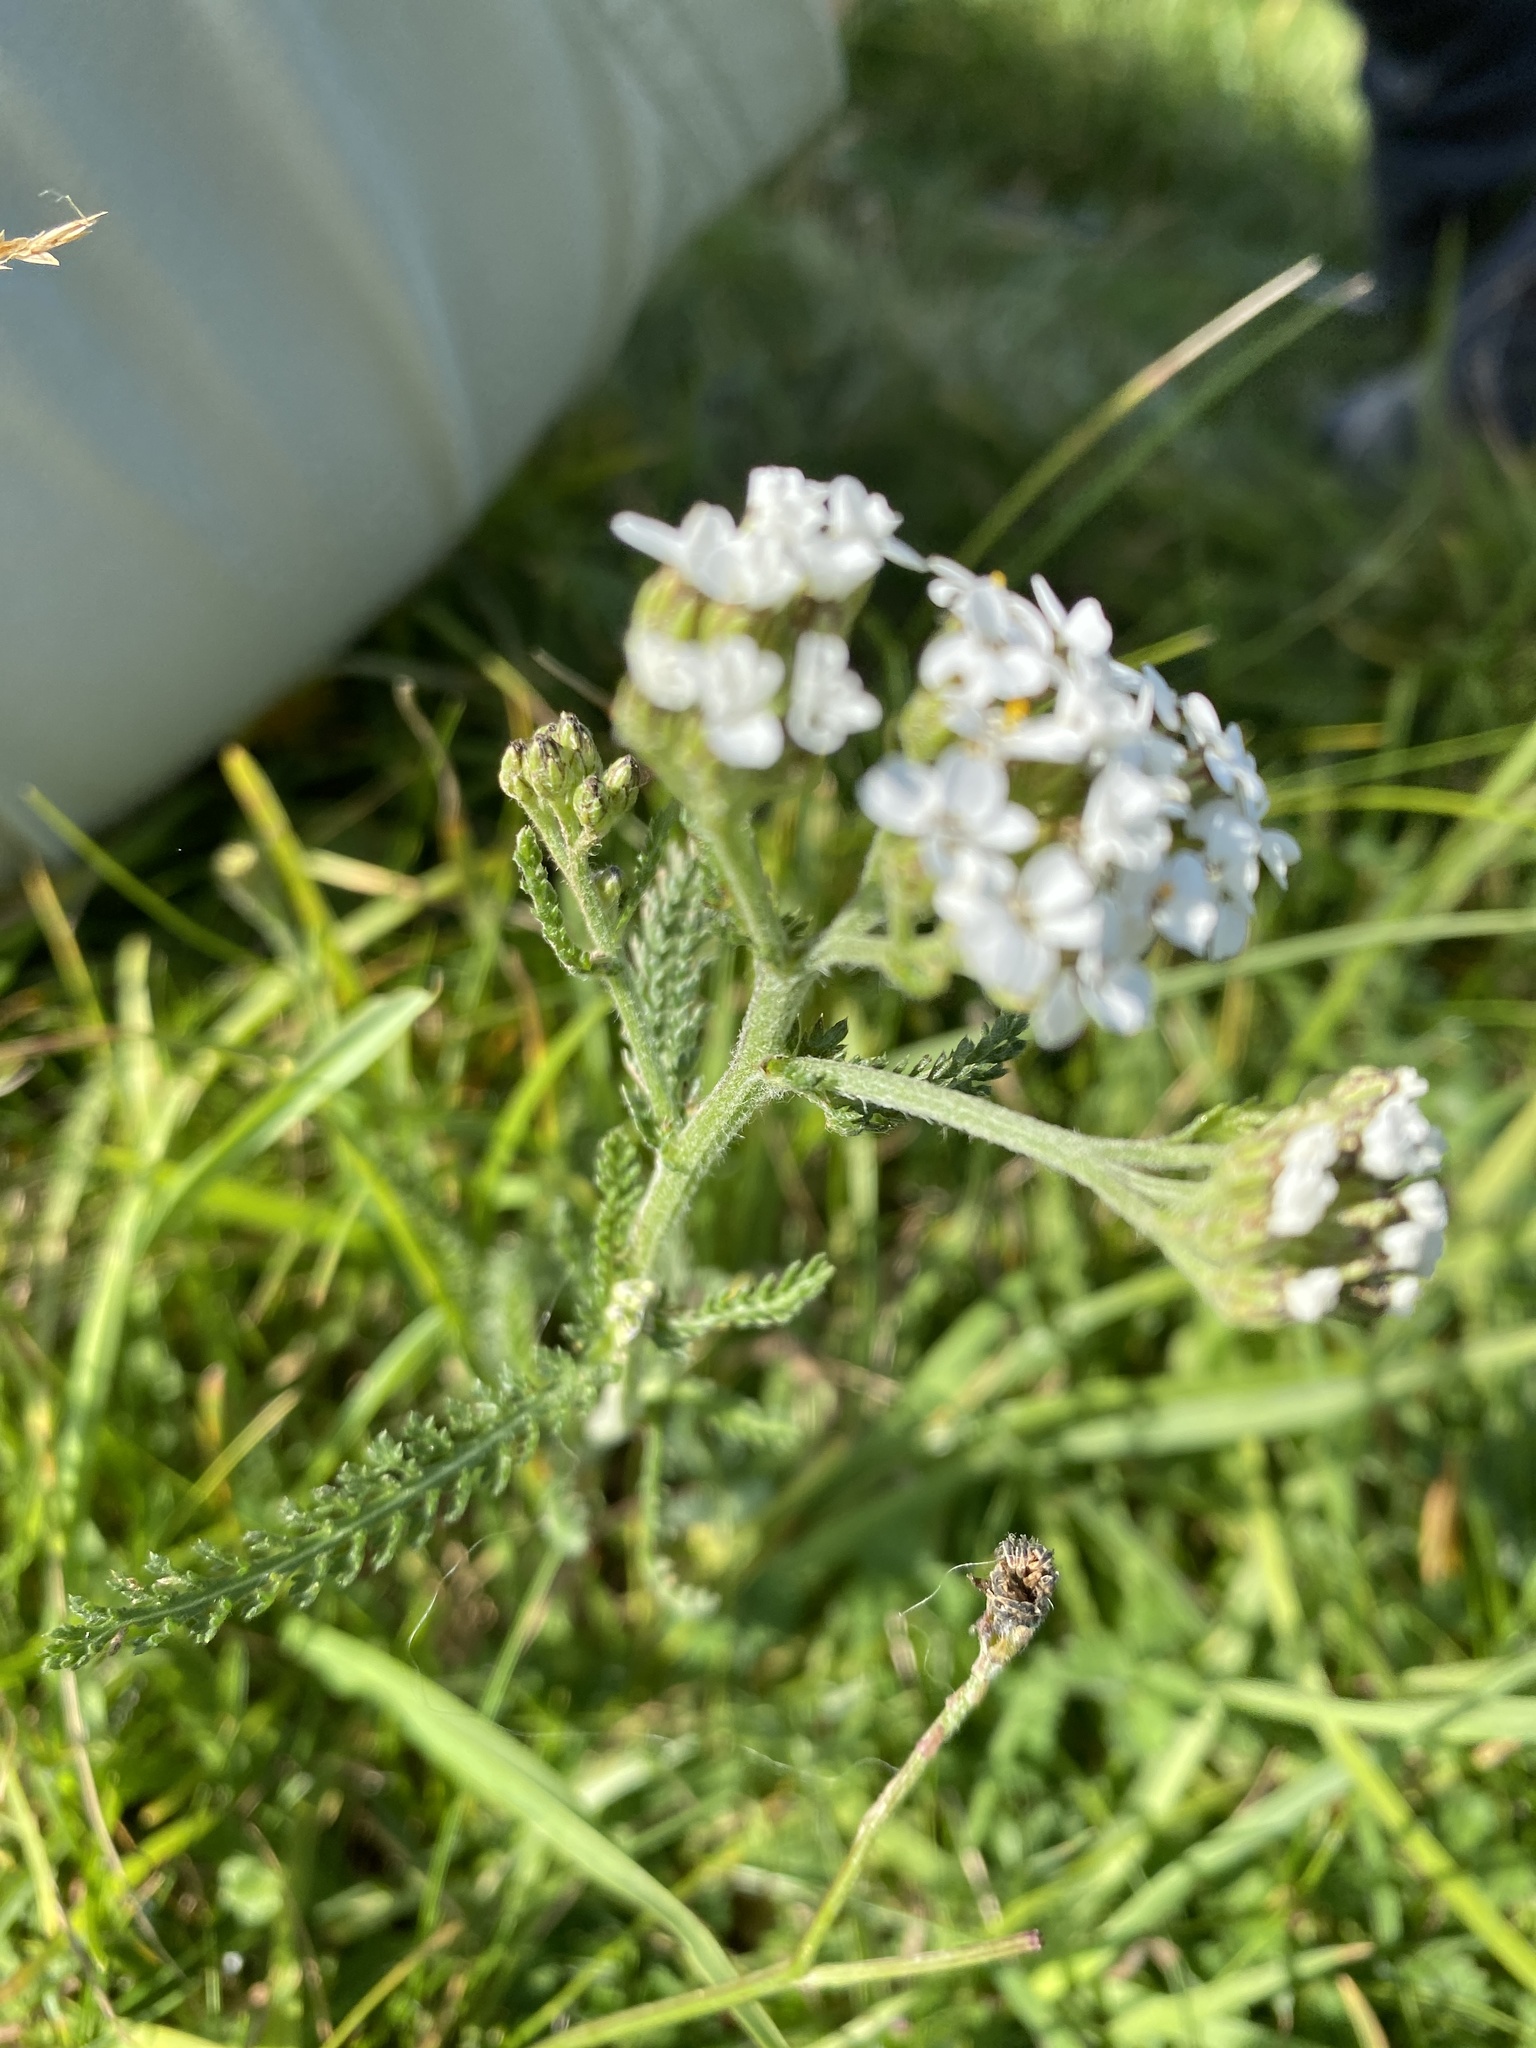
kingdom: Plantae
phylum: Tracheophyta
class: Magnoliopsida
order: Asterales
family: Asteraceae
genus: Achillea
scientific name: Achillea millefolium
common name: Yarrow
